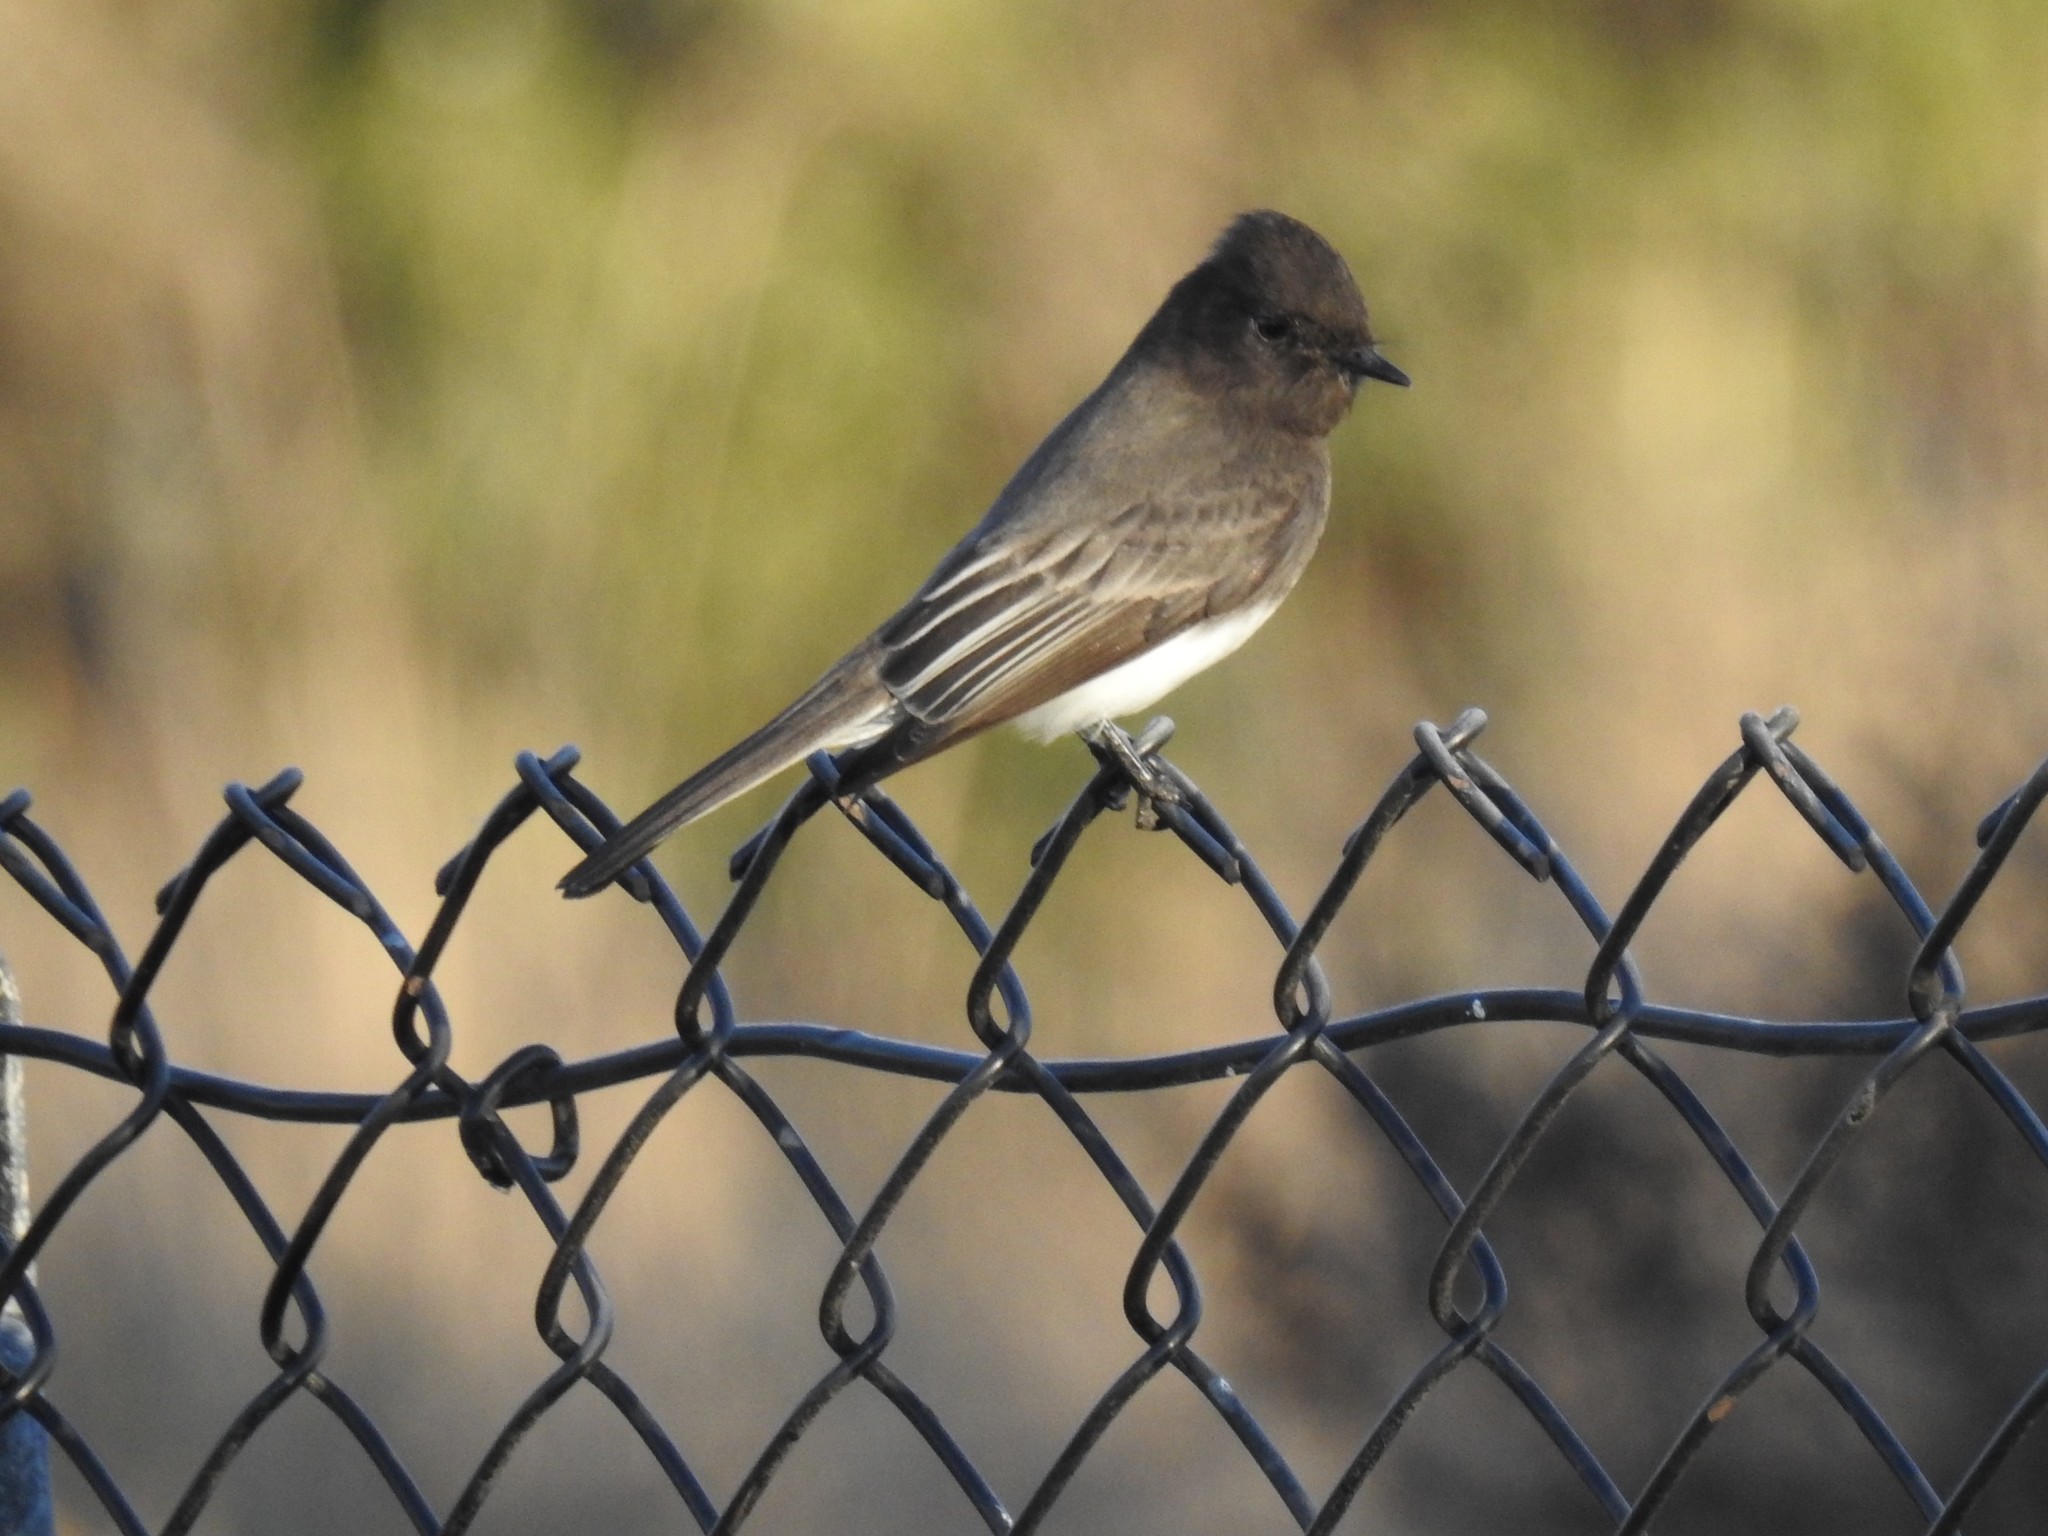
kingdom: Animalia
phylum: Chordata
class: Aves
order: Passeriformes
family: Tyrannidae
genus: Sayornis
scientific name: Sayornis nigricans
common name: Black phoebe
